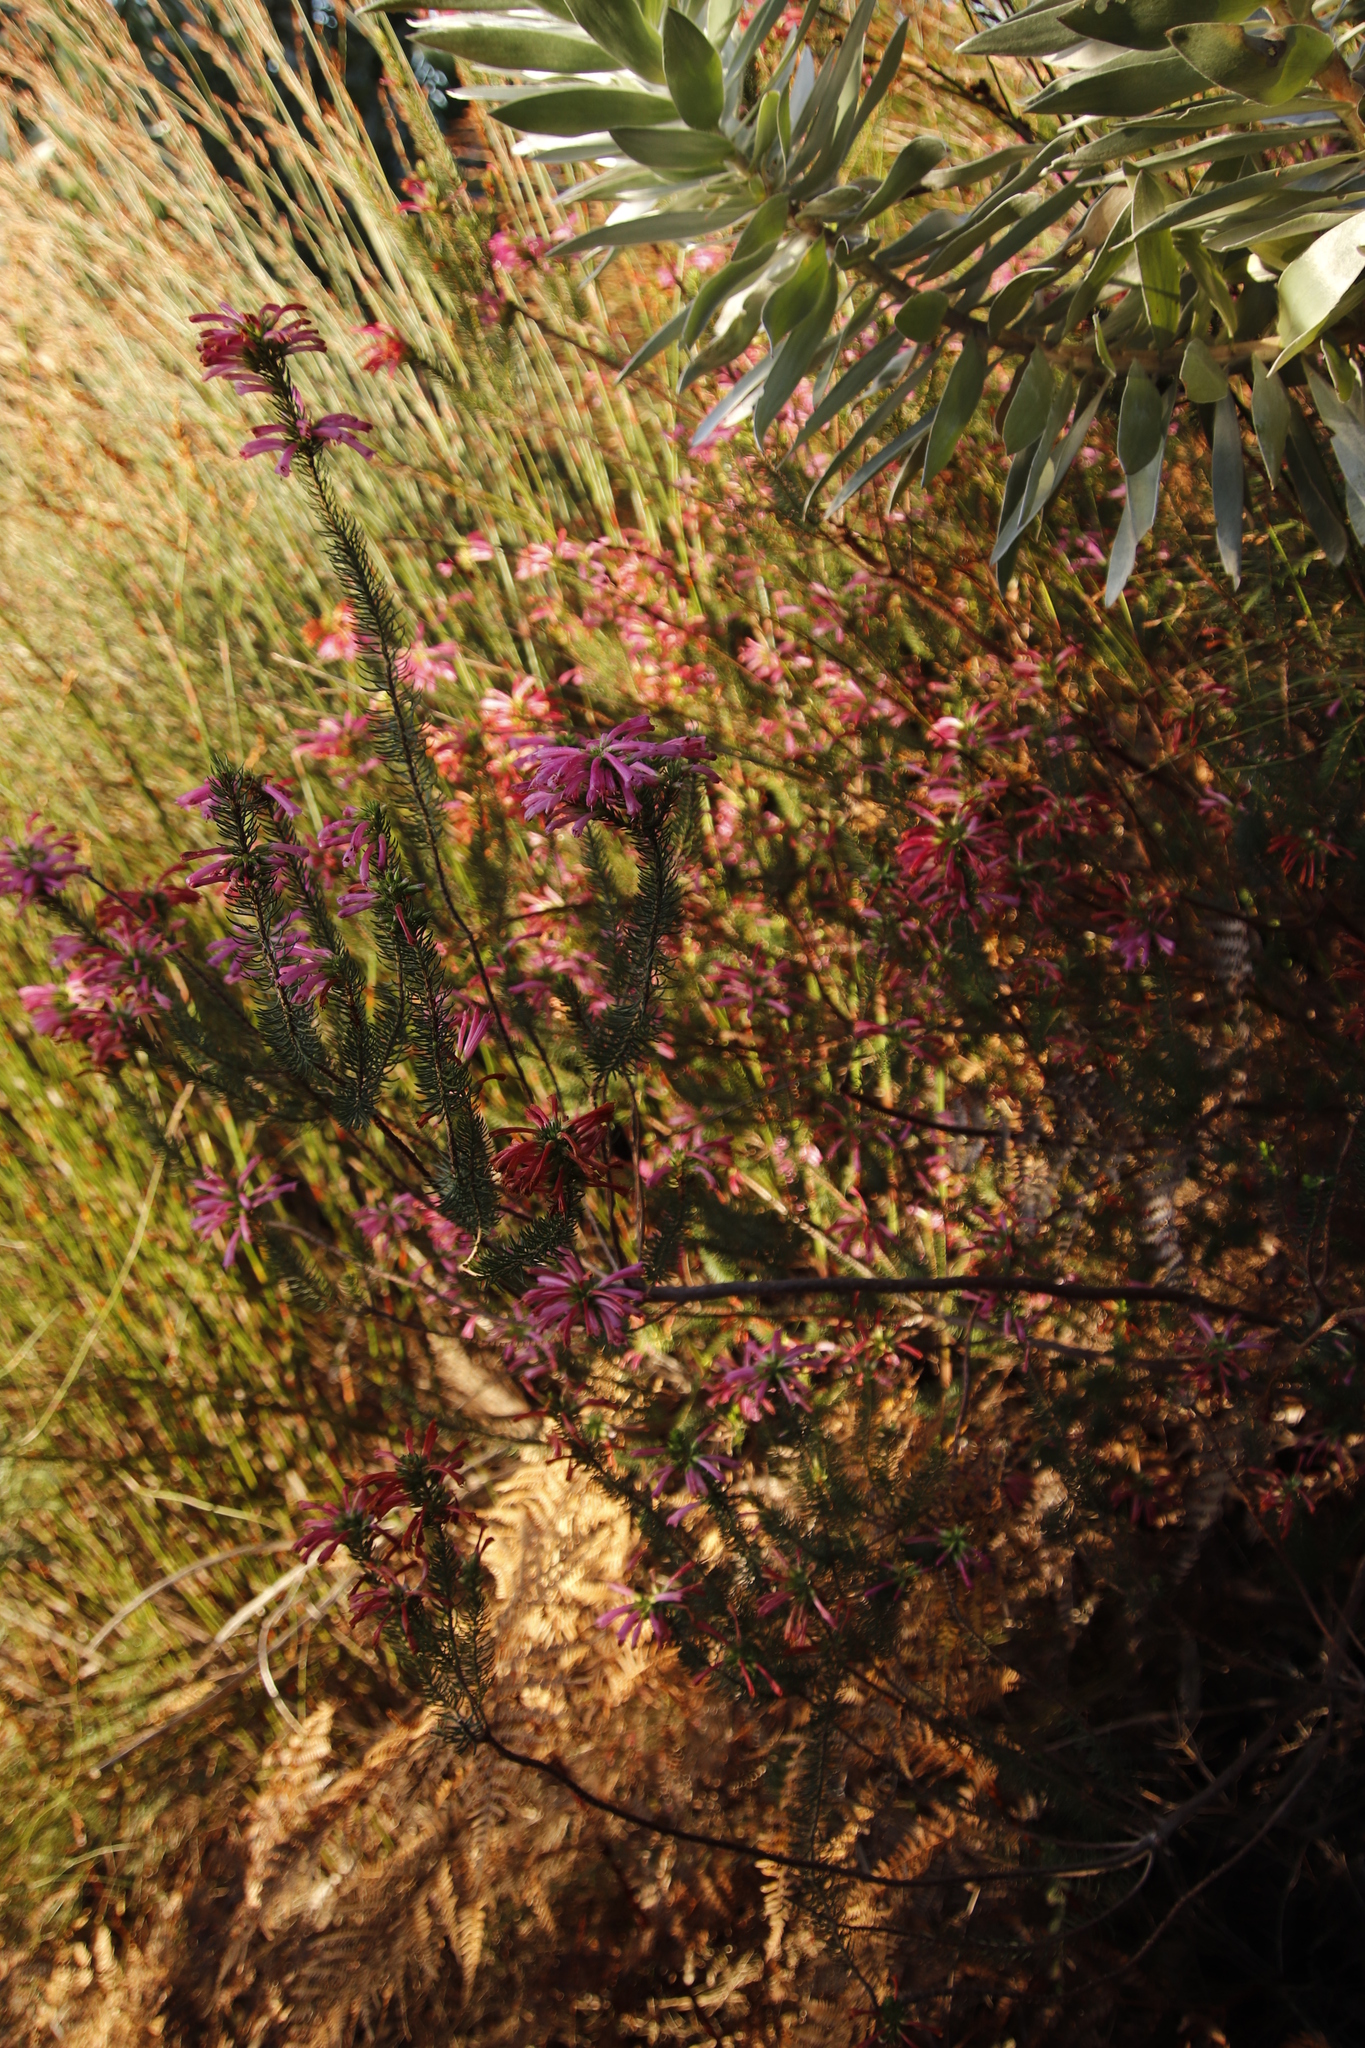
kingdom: Plantae
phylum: Tracheophyta
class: Magnoliopsida
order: Ericales
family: Ericaceae
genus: Erica
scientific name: Erica abietina
